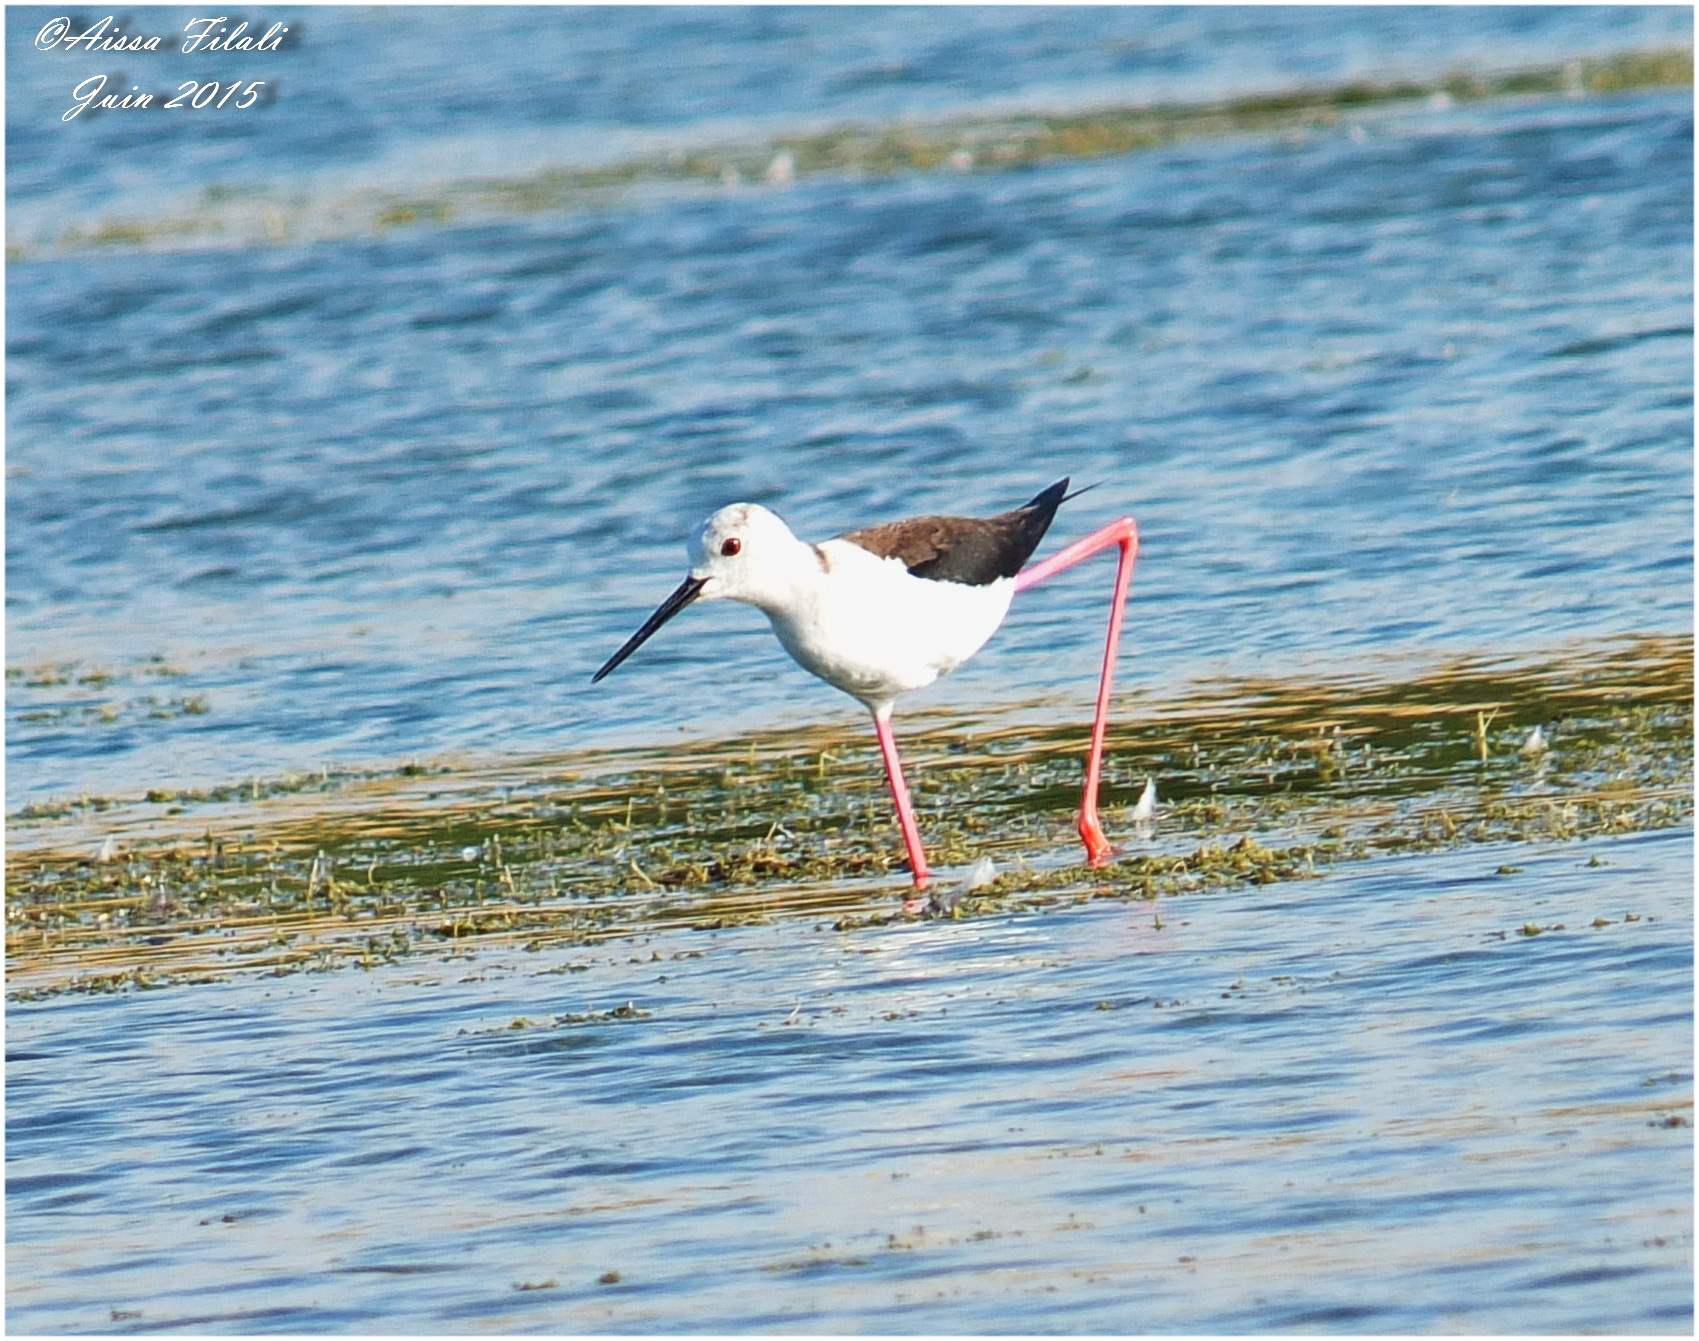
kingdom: Animalia
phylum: Chordata
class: Aves
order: Charadriiformes
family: Recurvirostridae
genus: Himantopus
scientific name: Himantopus himantopus
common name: Black-winged stilt
